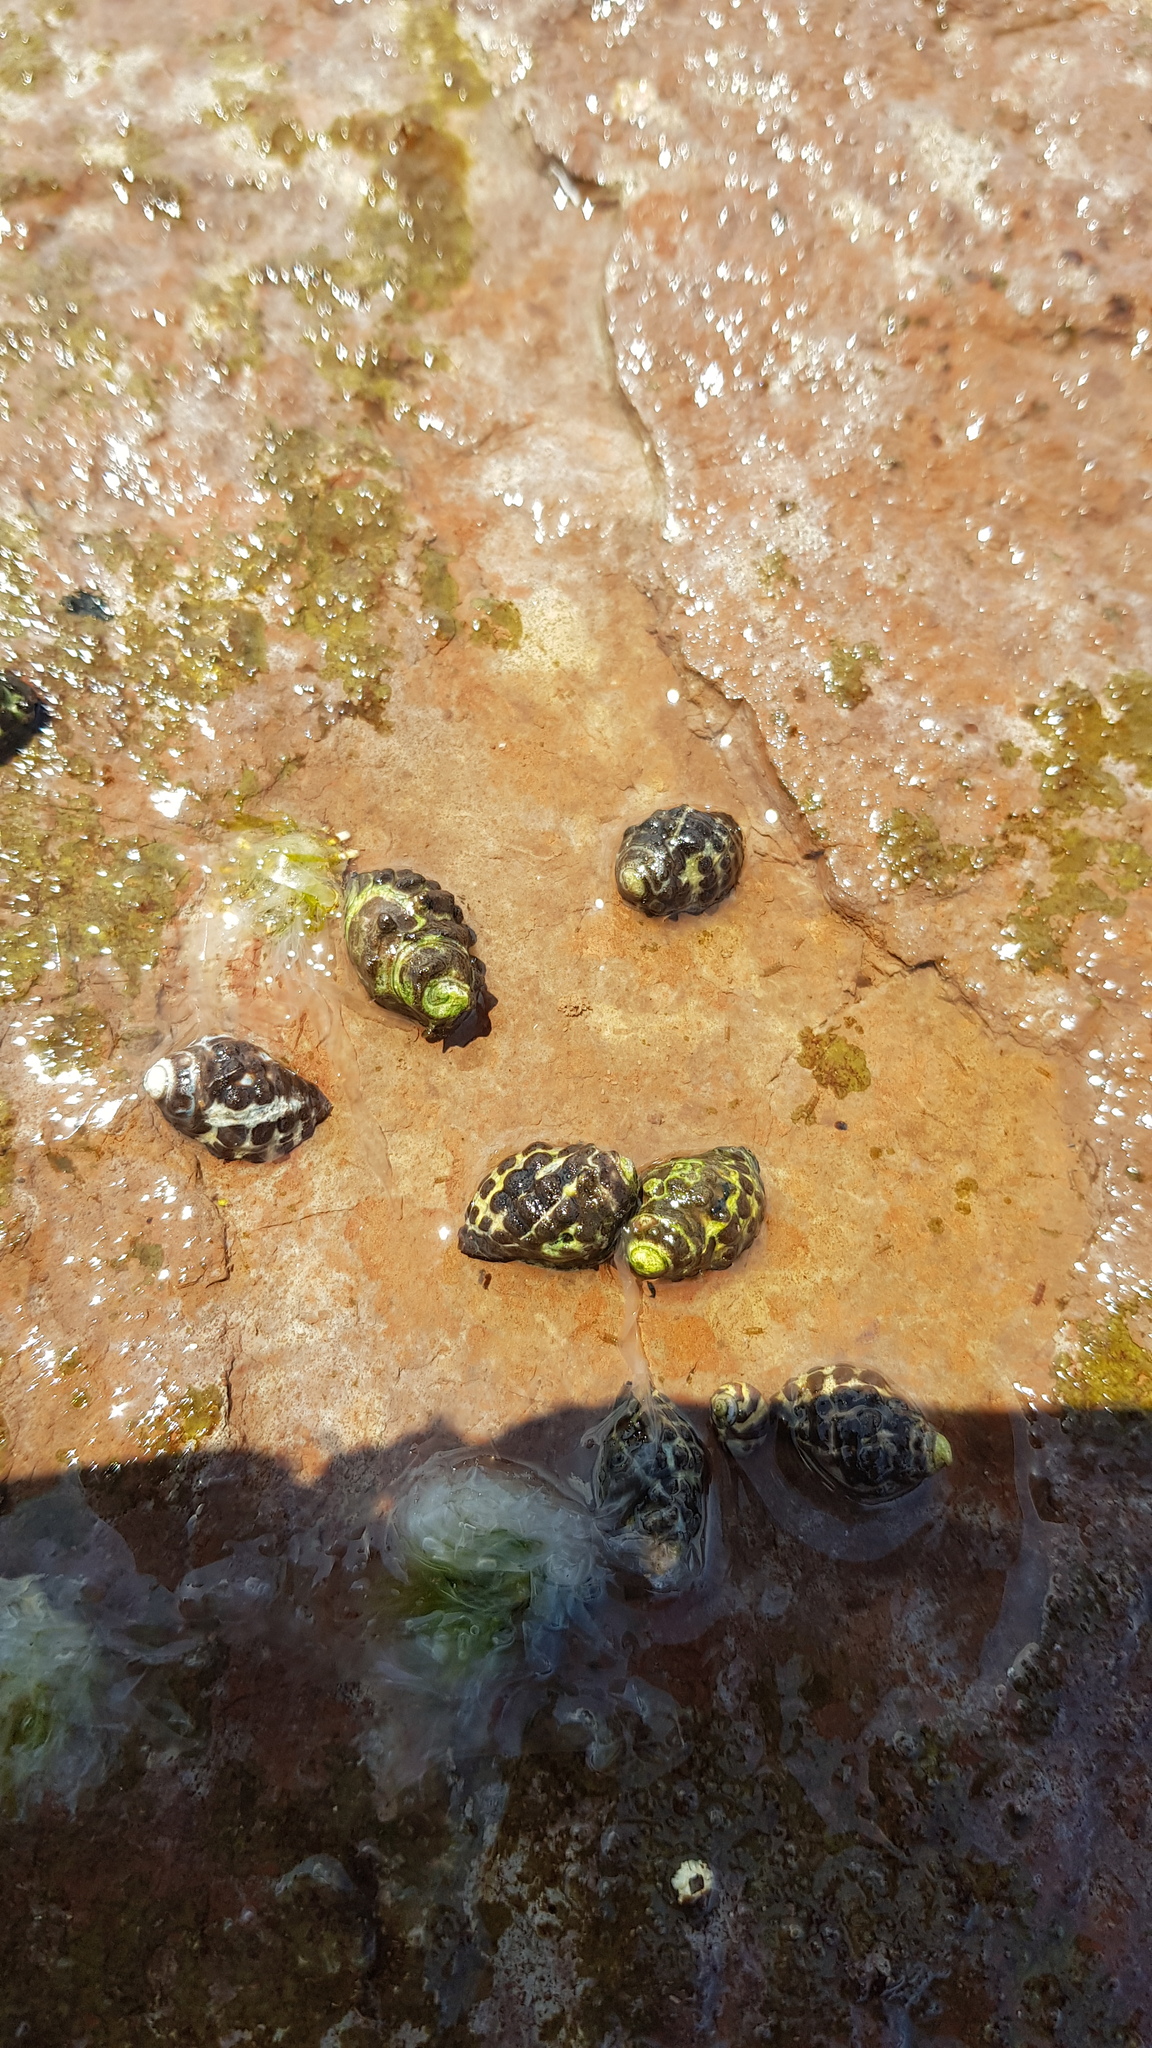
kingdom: Animalia
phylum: Mollusca
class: Gastropoda
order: Neogastropoda
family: Muricidae
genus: Tenguella
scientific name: Tenguella marginalba
